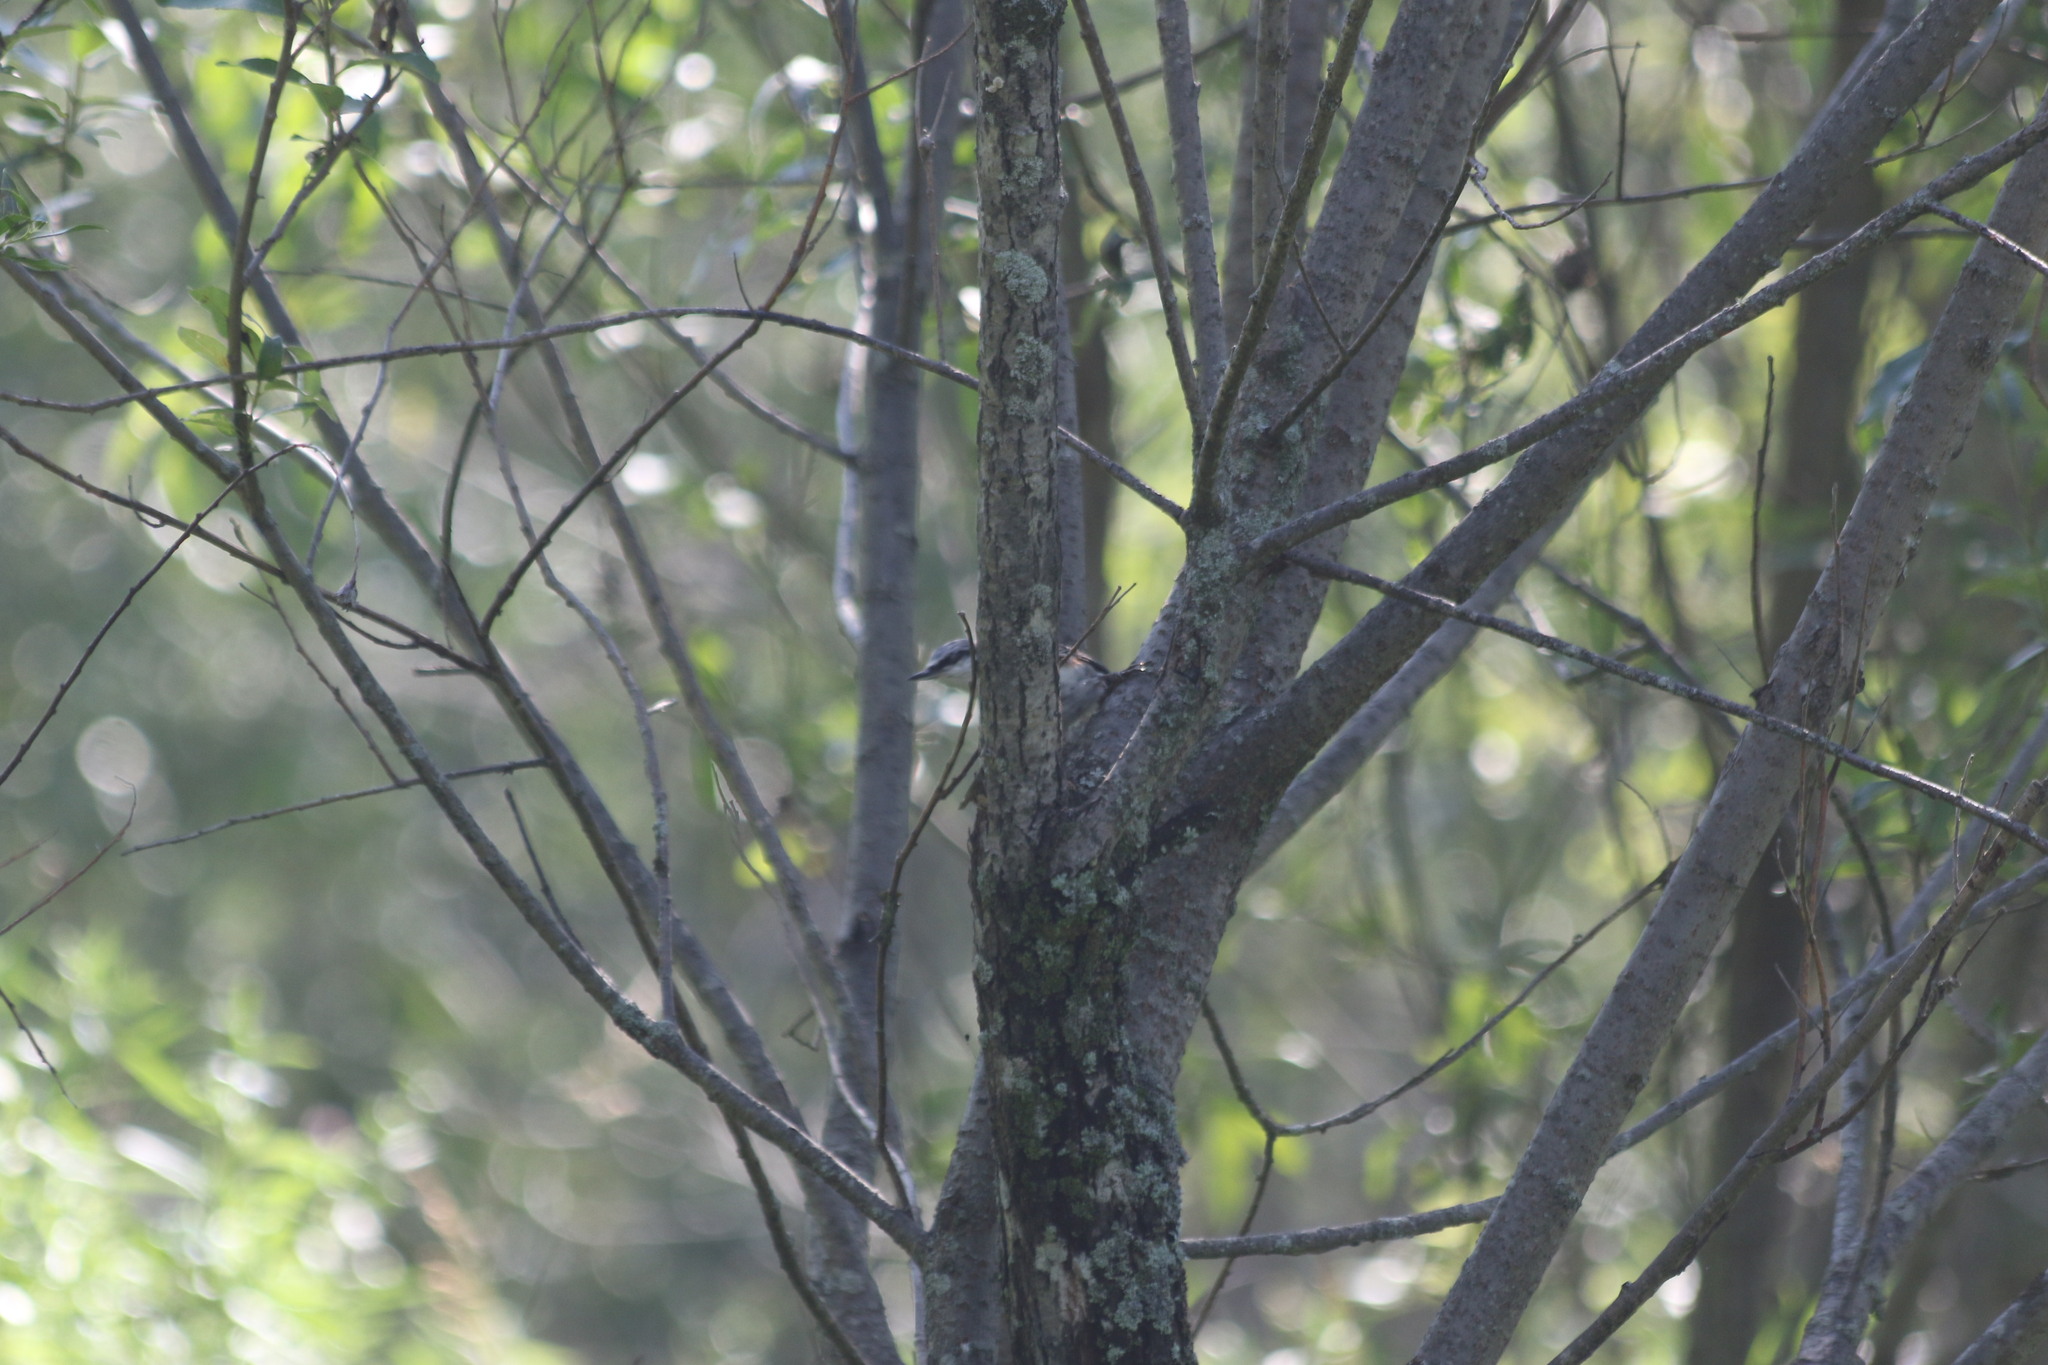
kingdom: Animalia
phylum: Chordata
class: Aves
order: Passeriformes
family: Sittidae
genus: Sitta
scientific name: Sitta europaea
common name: Eurasian nuthatch
